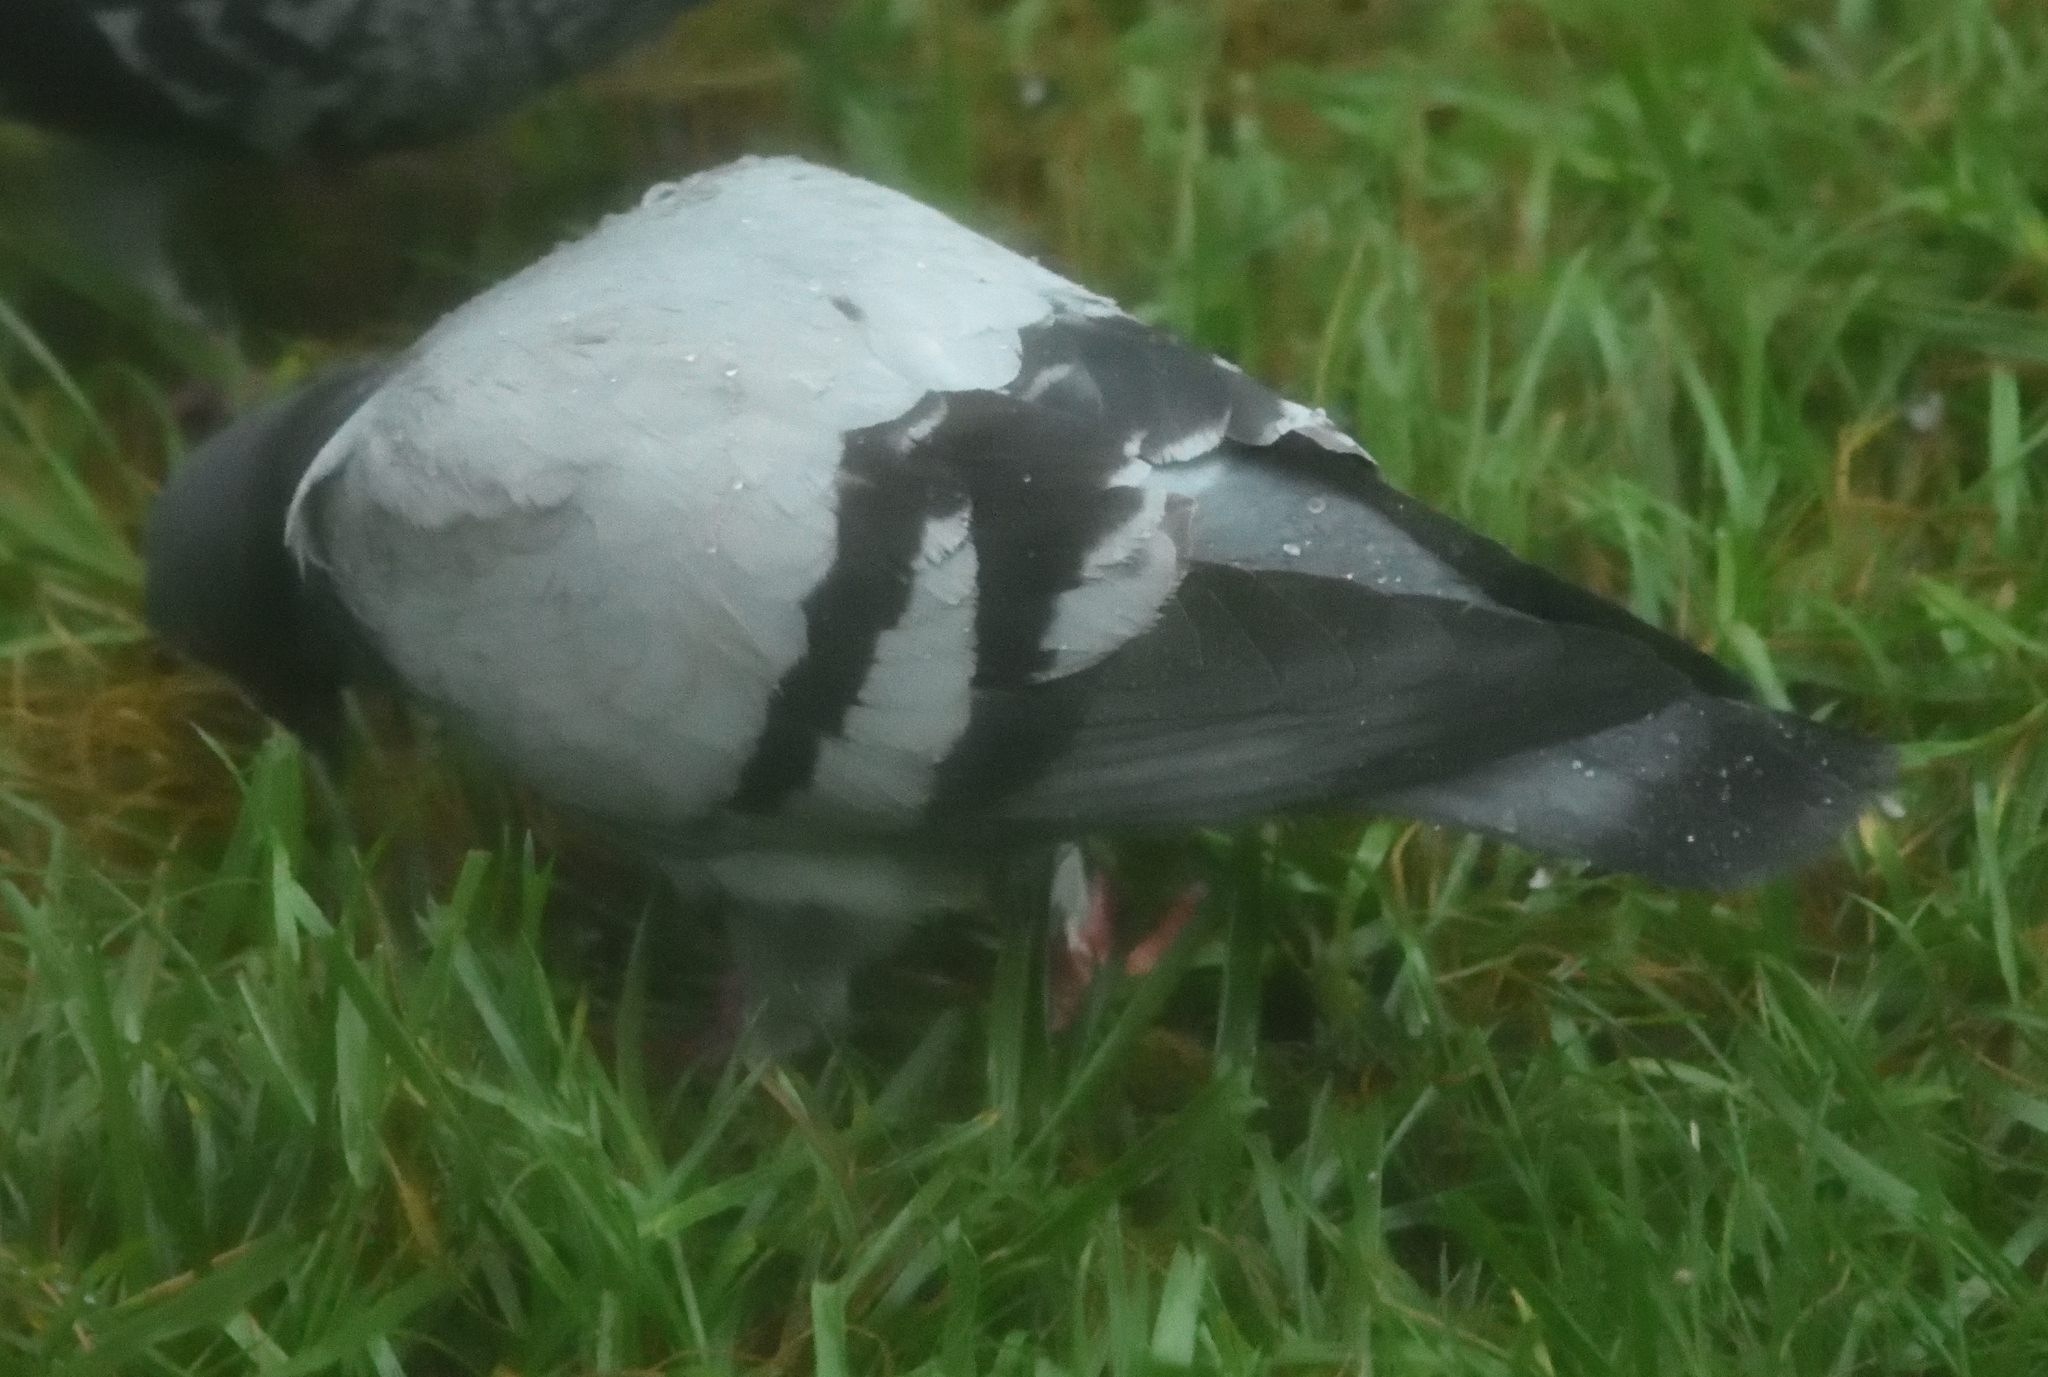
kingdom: Animalia
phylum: Chordata
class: Aves
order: Columbiformes
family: Columbidae
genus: Columba
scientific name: Columba livia
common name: Rock pigeon
